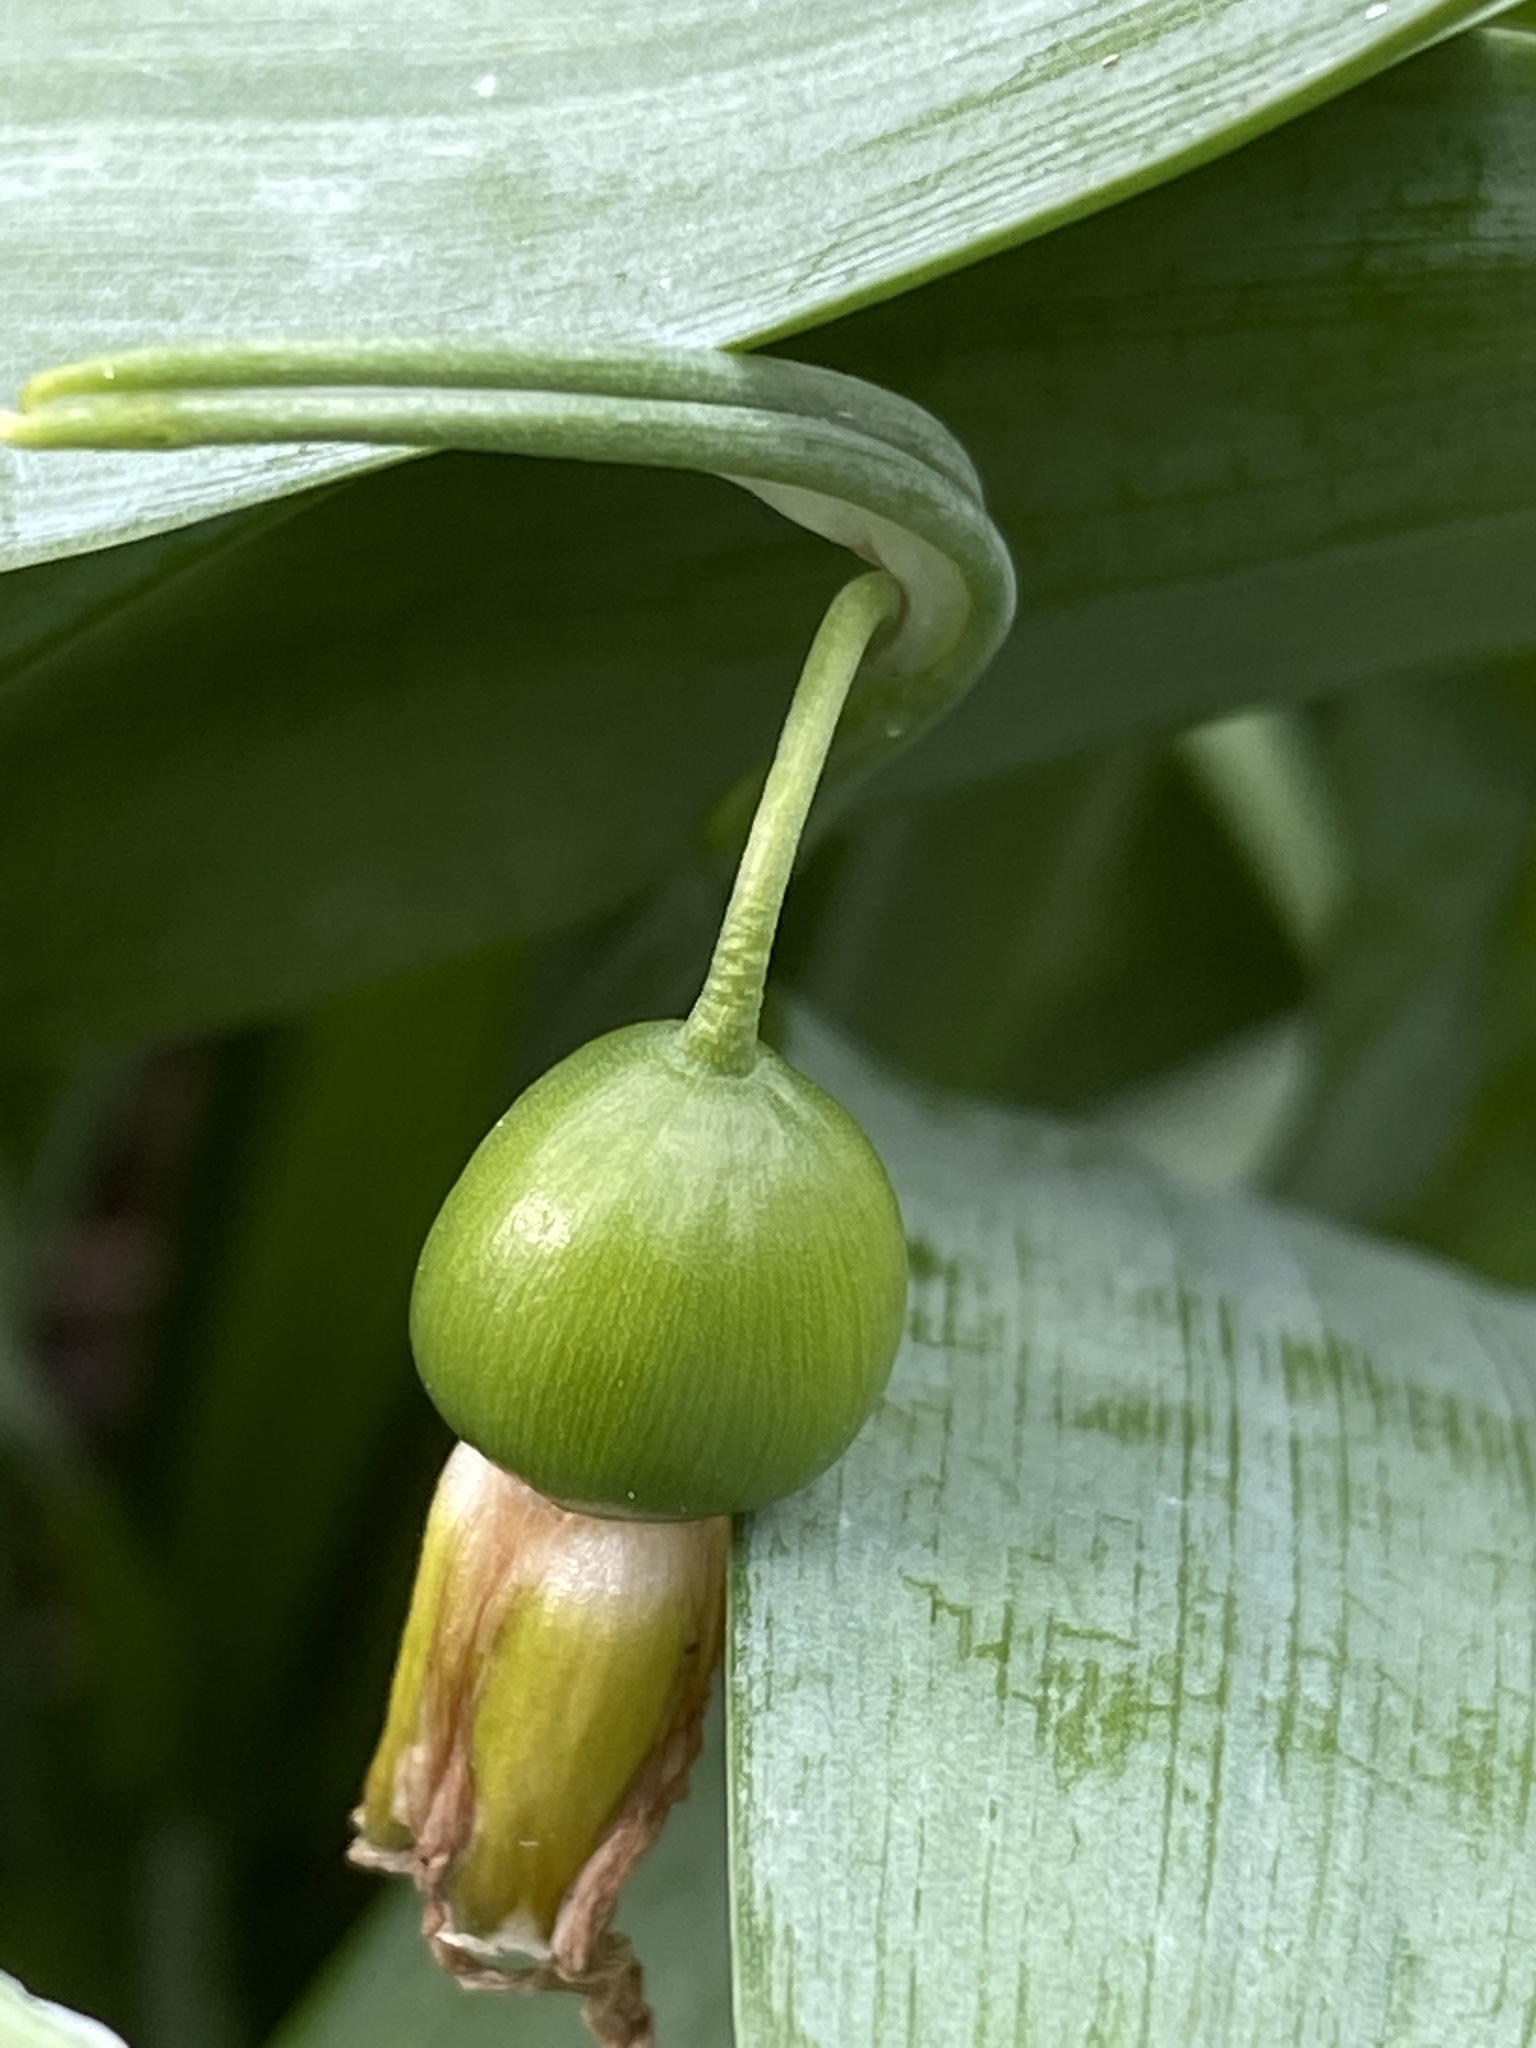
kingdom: Plantae
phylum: Tracheophyta
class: Liliopsida
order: Asparagales
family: Amaryllidaceae
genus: Galanthus
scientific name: Galanthus elwesii
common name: Greater snowdrop
